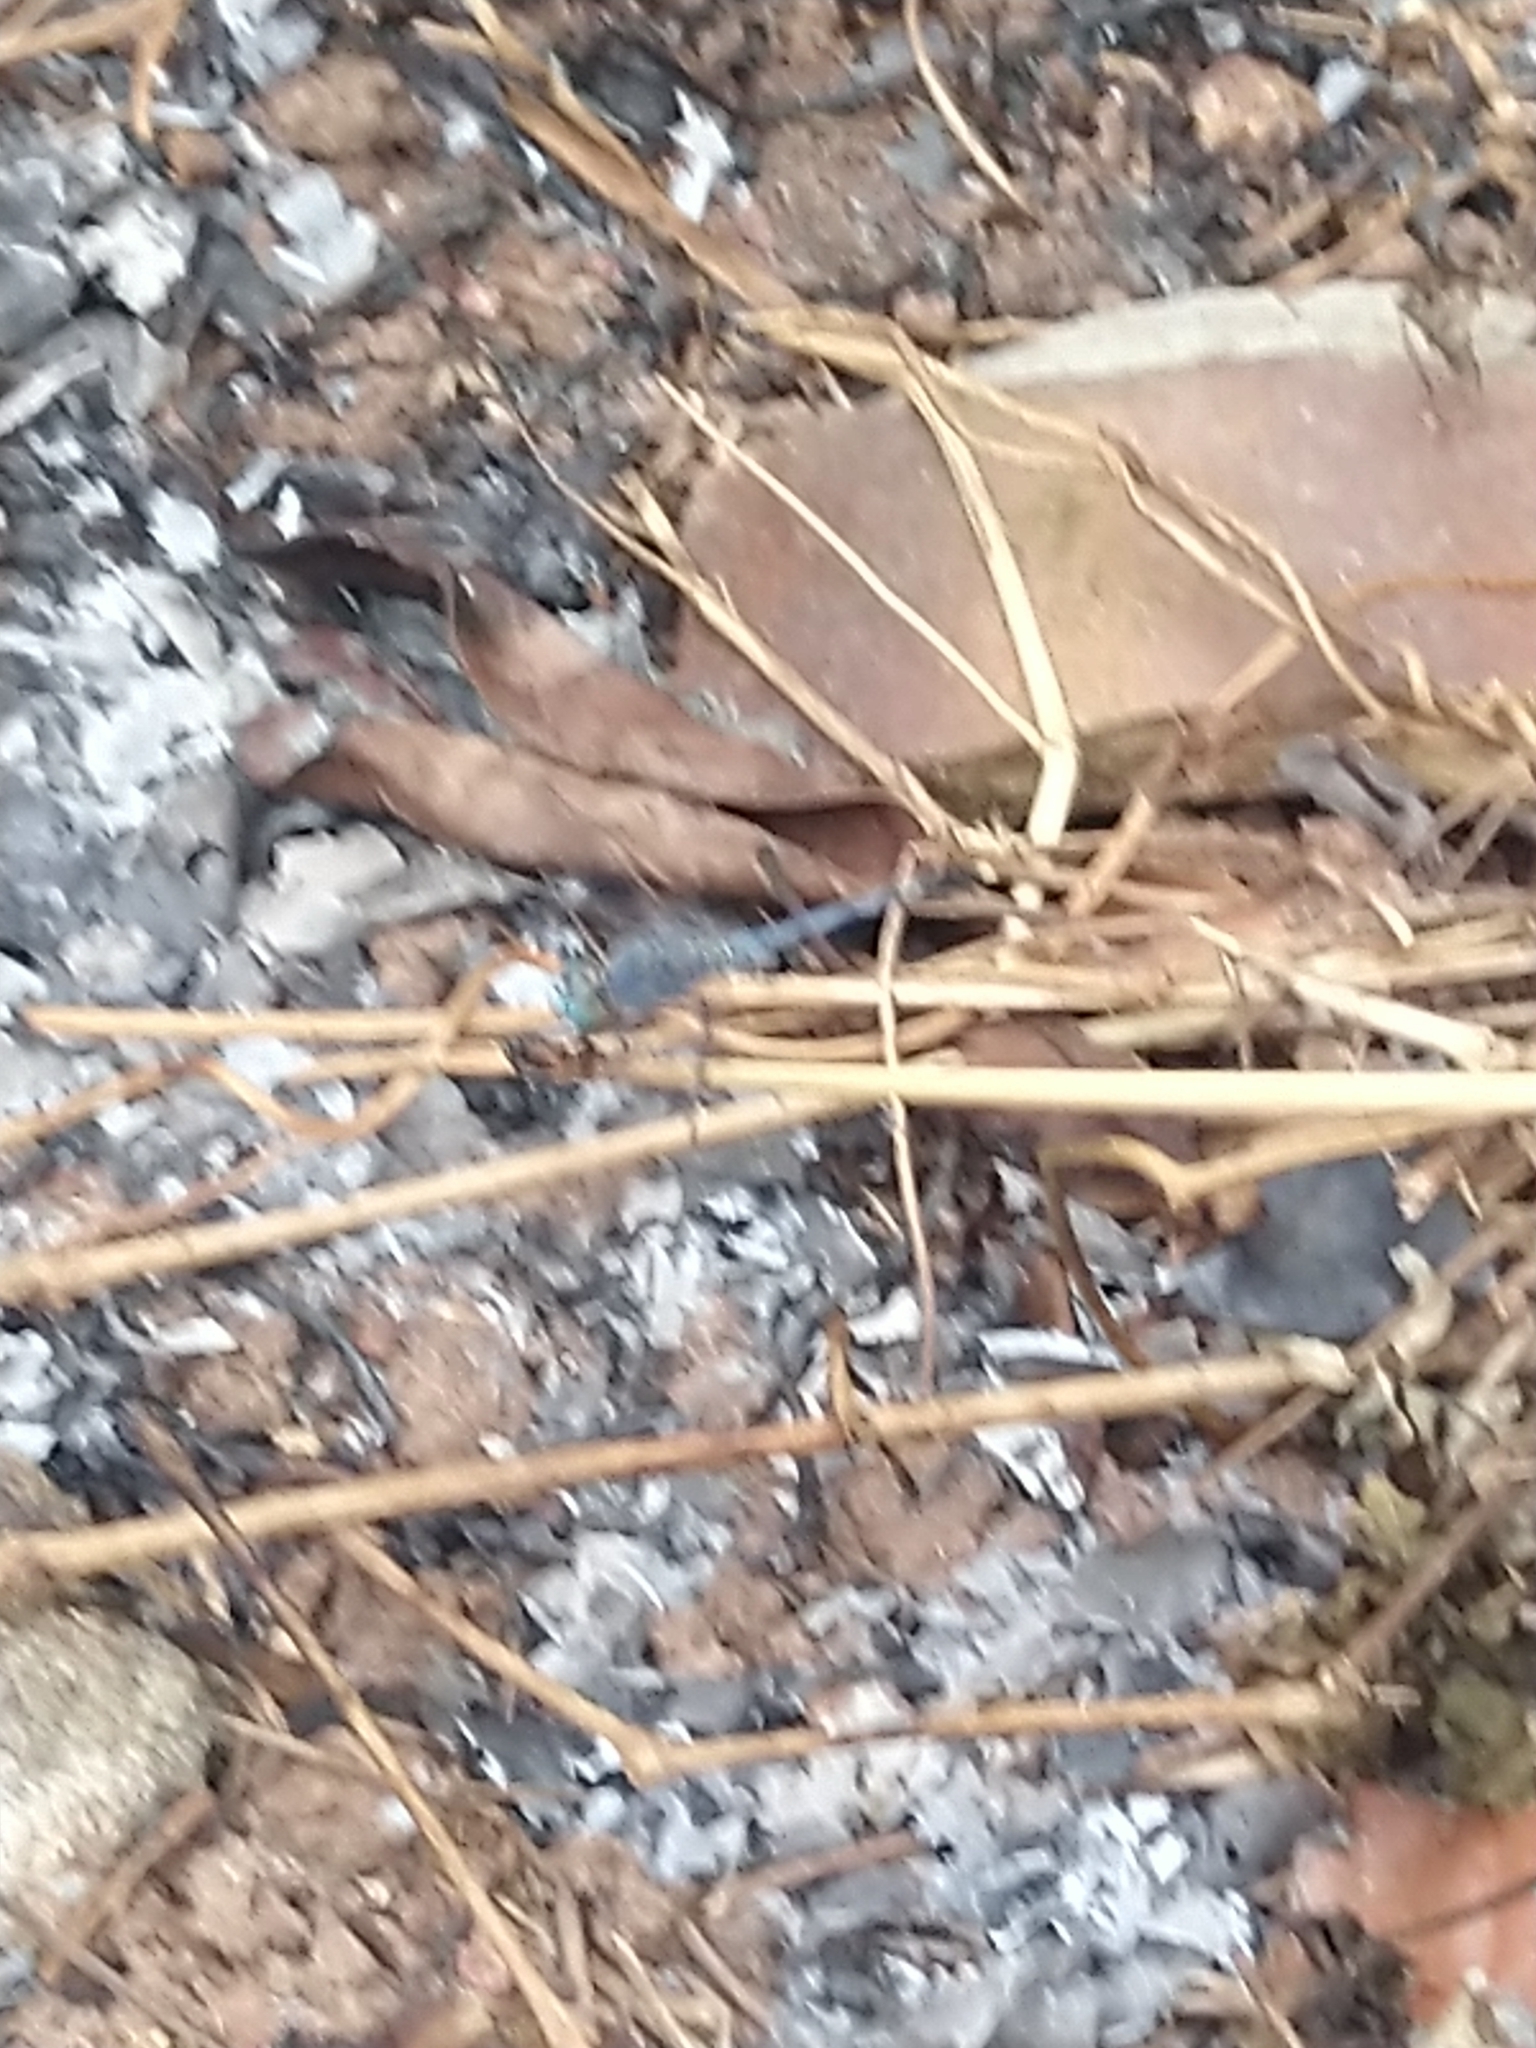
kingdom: Animalia
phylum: Arthropoda
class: Insecta
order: Odonata
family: Libellulidae
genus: Diplacodes
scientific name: Diplacodes trivialis
